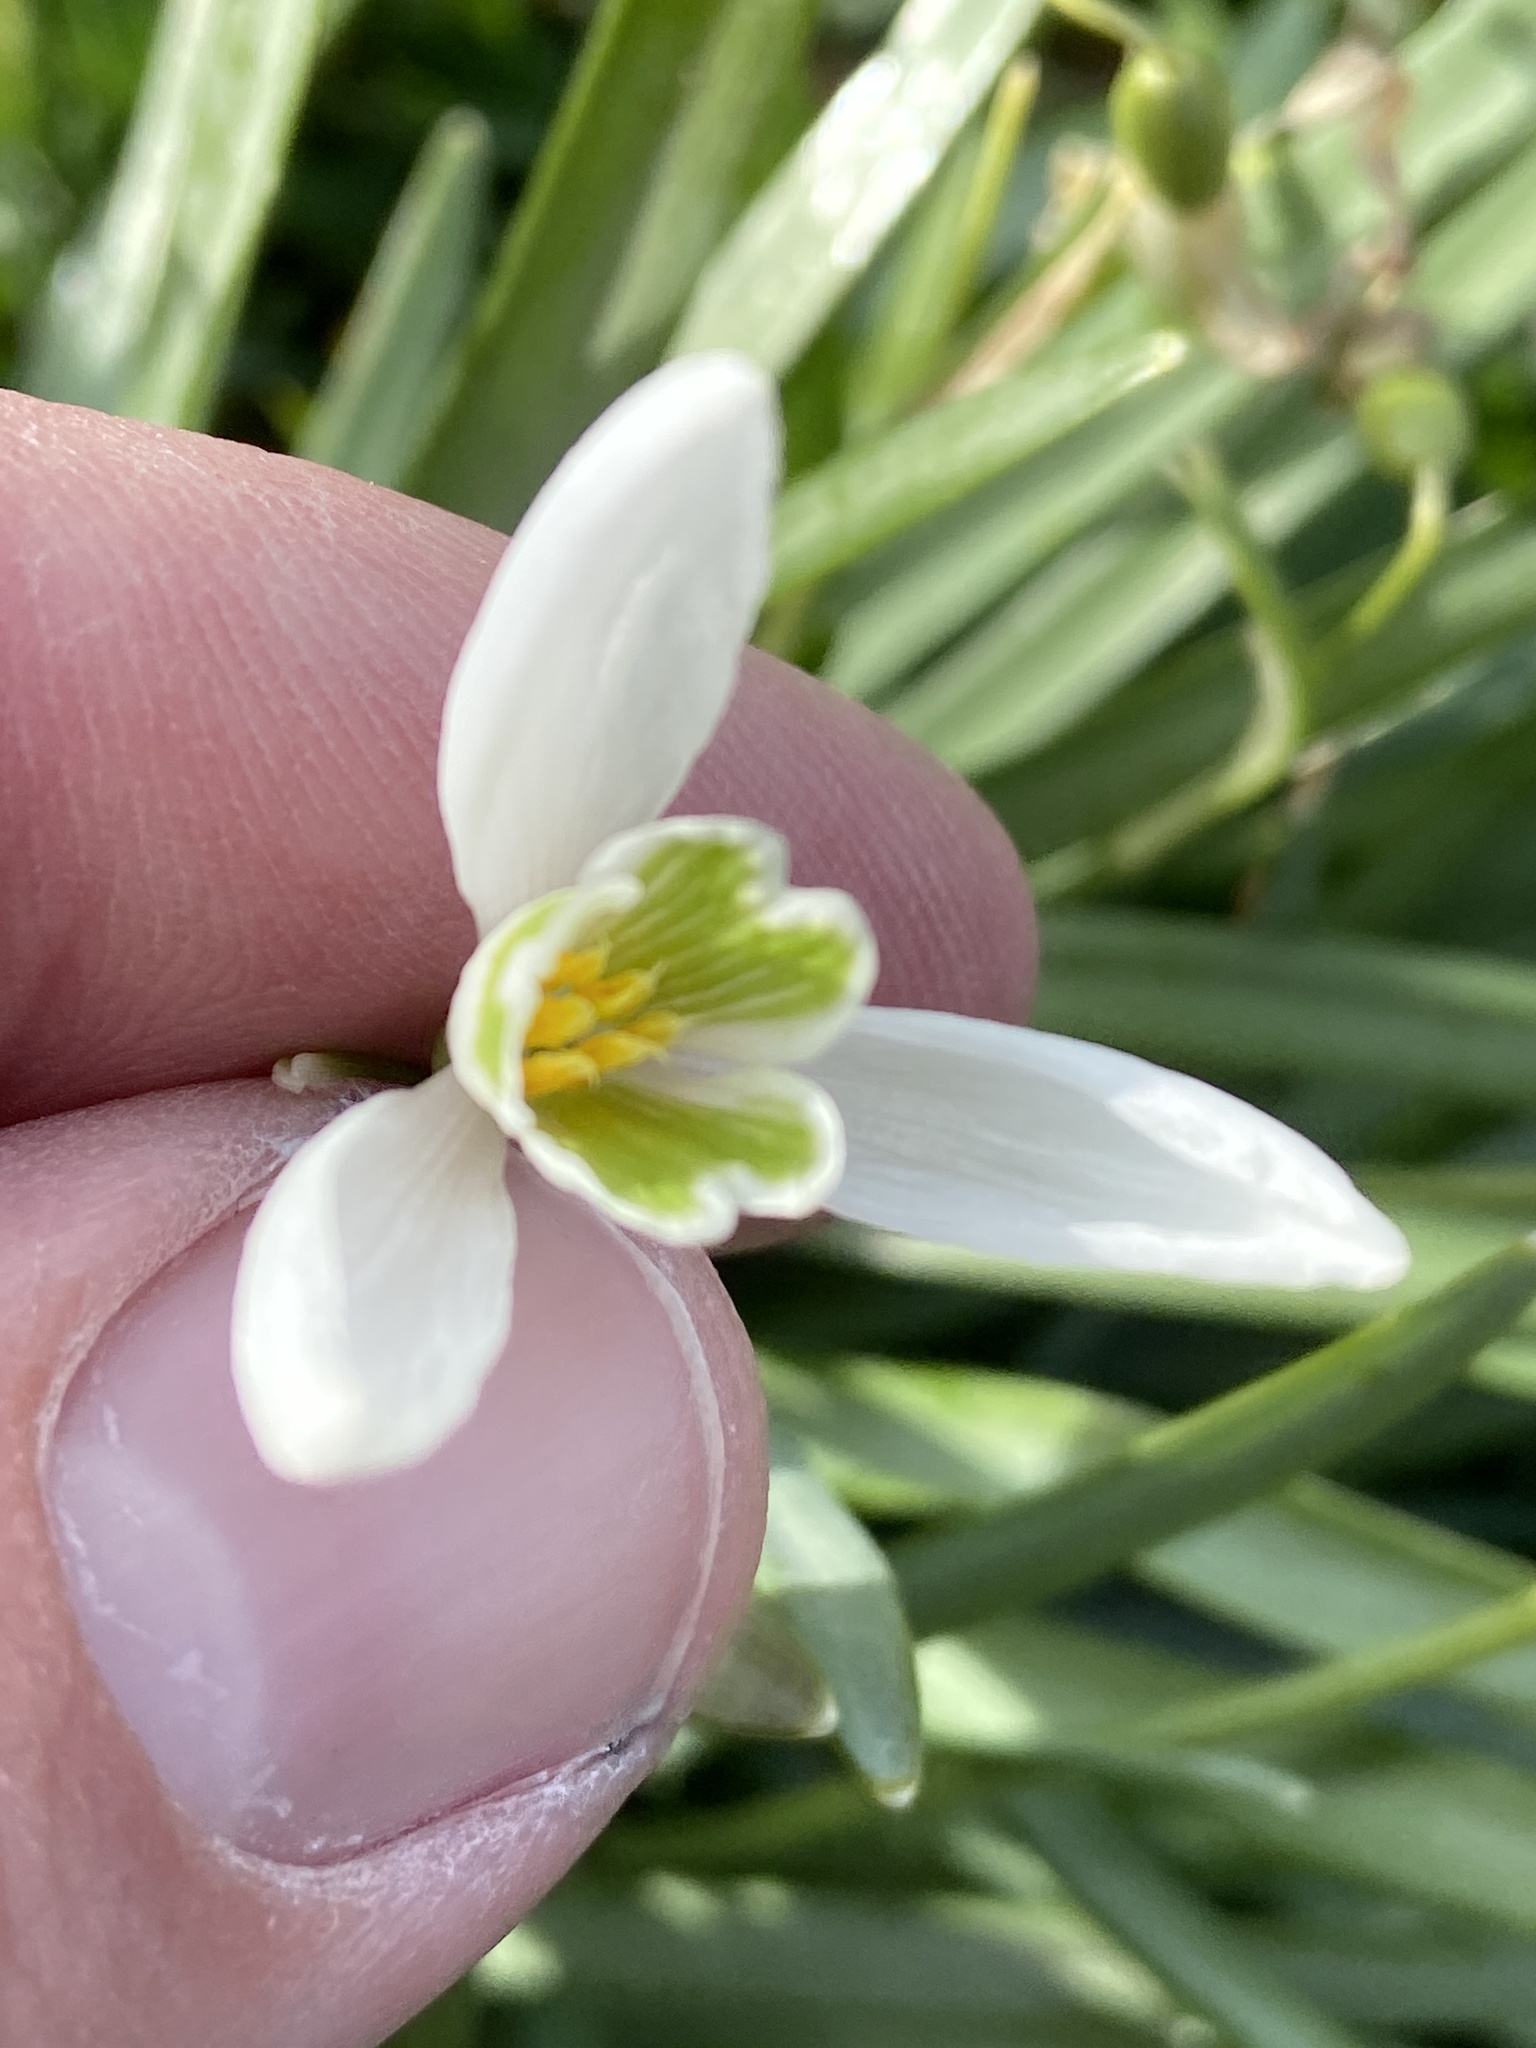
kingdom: Plantae
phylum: Tracheophyta
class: Liliopsida
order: Asparagales
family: Amaryllidaceae
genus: Galanthus
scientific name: Galanthus nivalis
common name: Snowdrop
